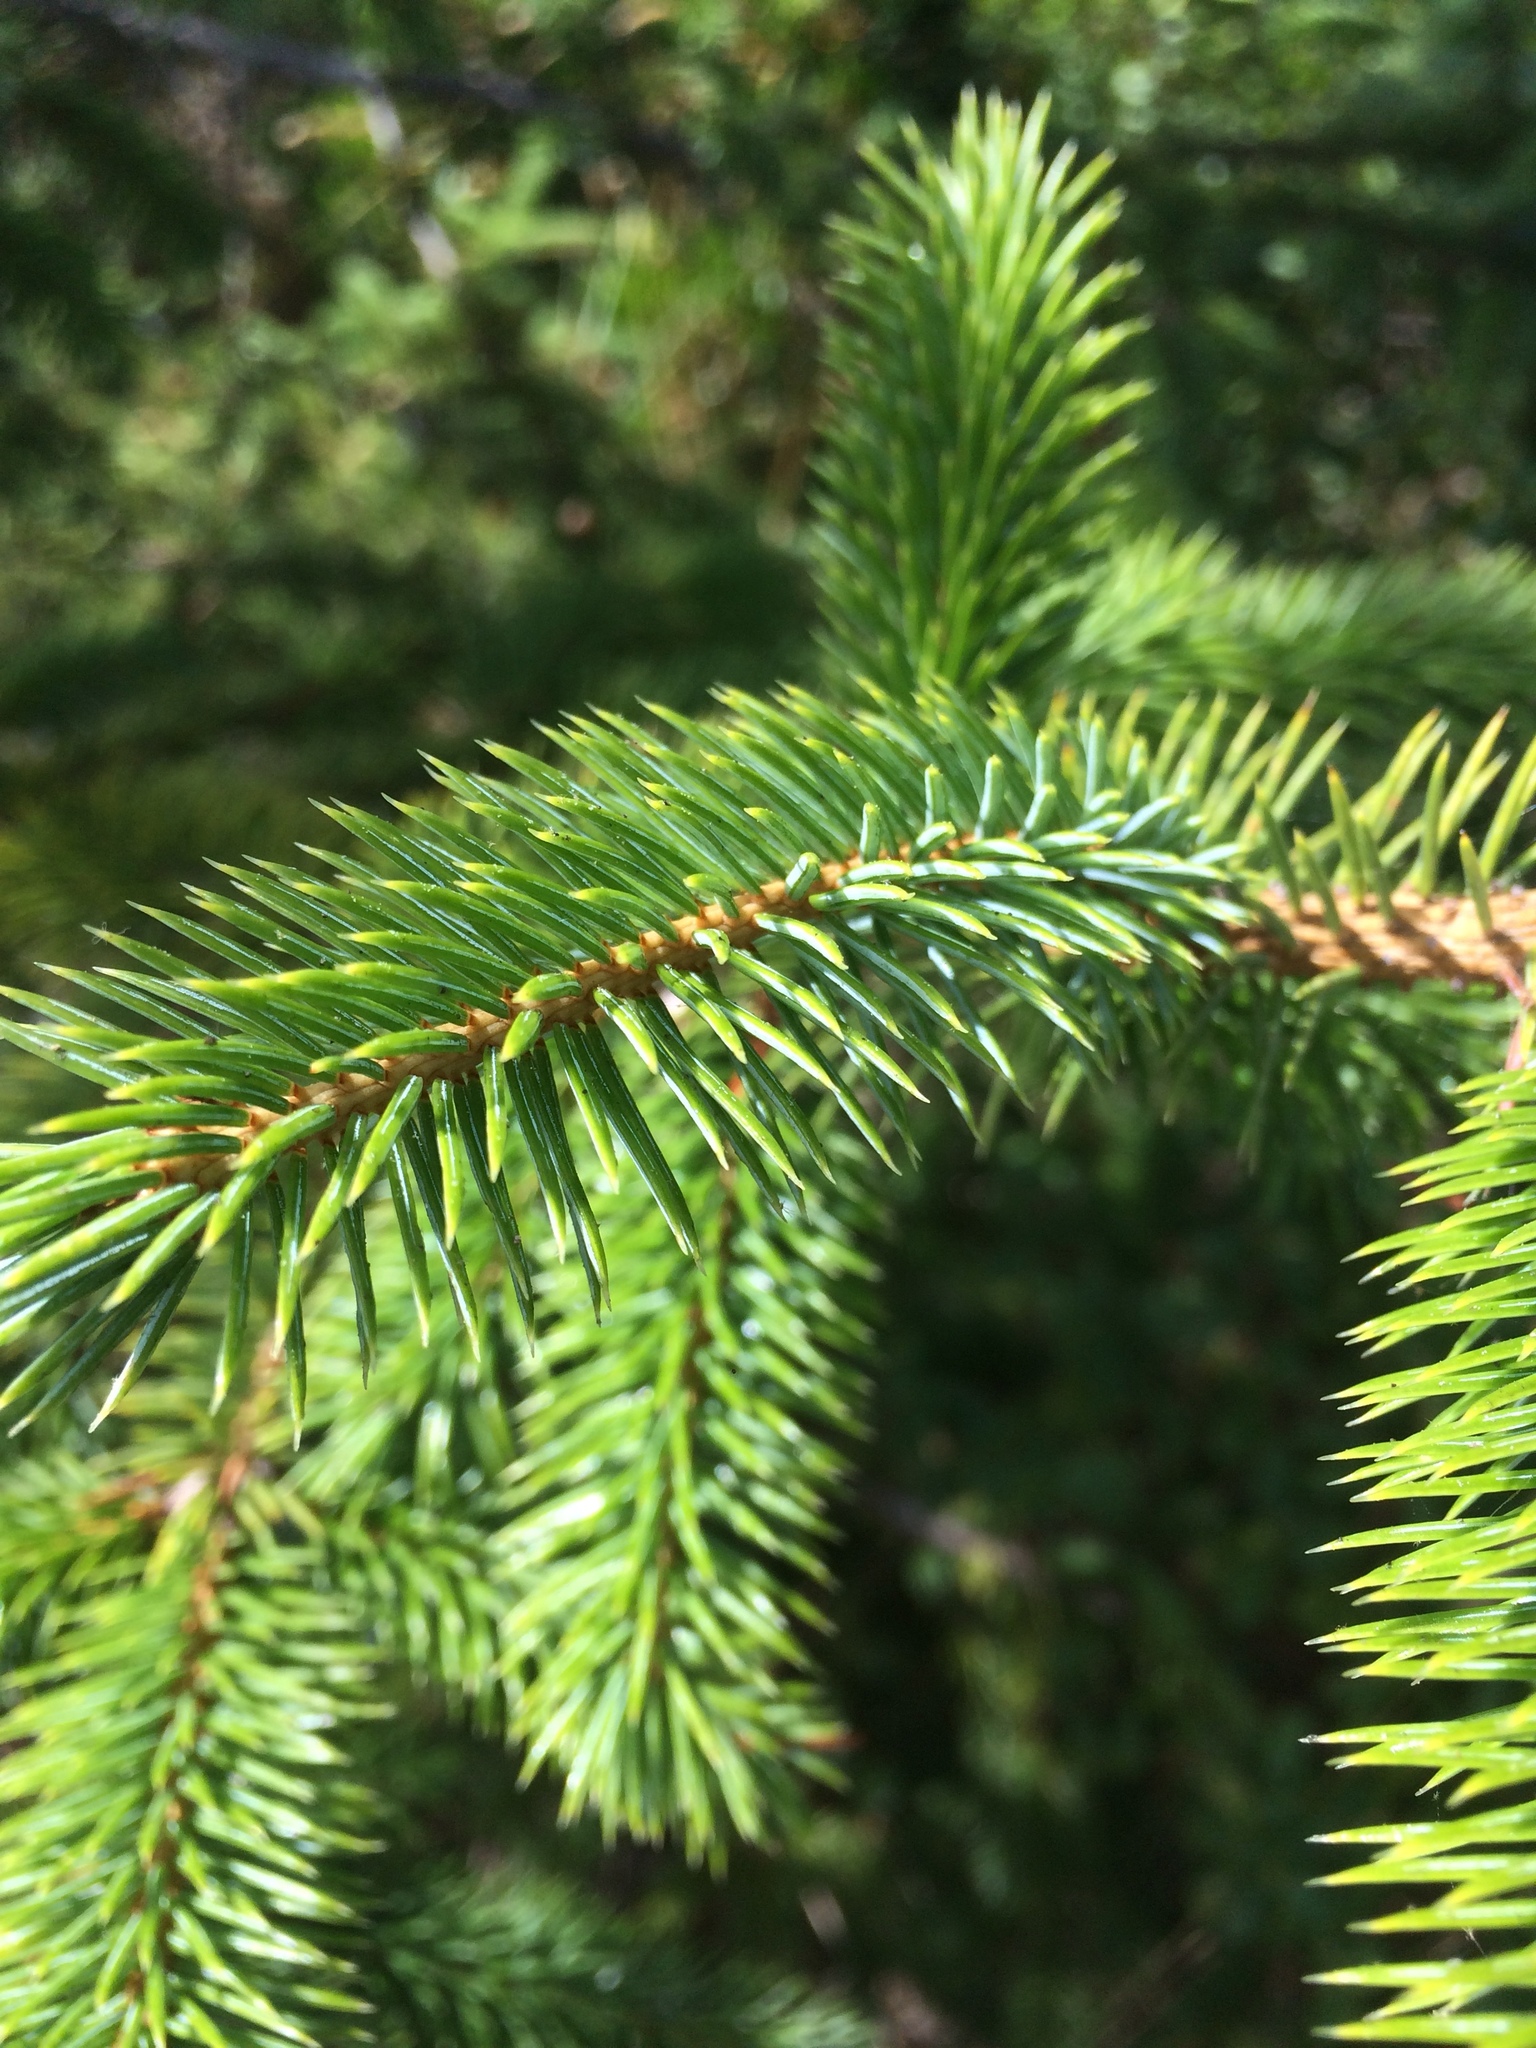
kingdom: Plantae
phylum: Tracheophyta
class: Pinopsida
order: Pinales
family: Pinaceae
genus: Picea
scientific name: Picea sitchensis
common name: Sitka spruce
